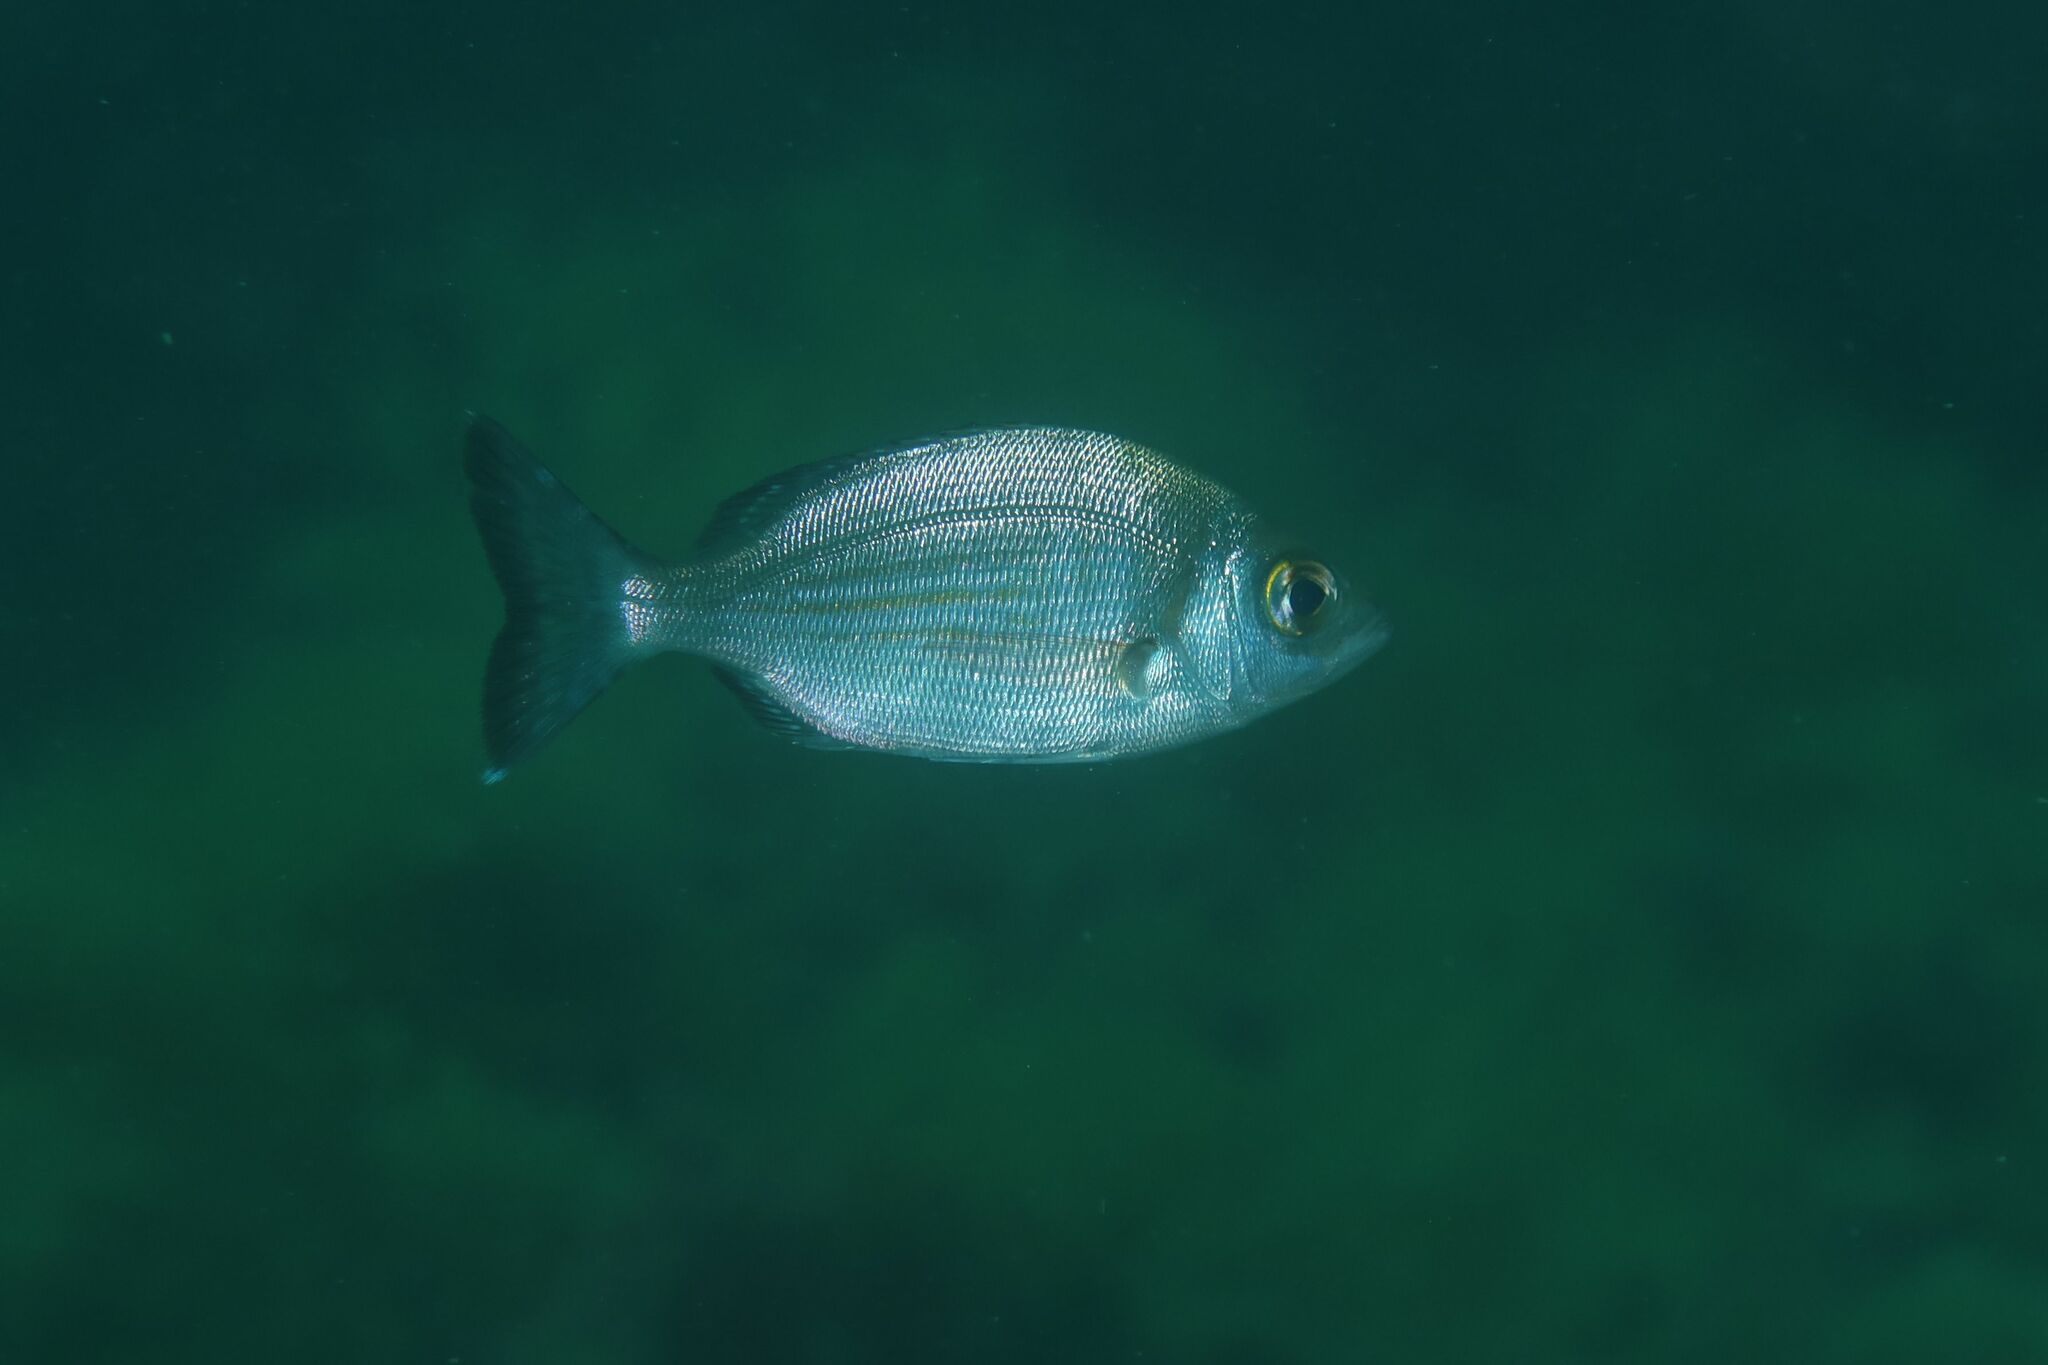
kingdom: Animalia
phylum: Chordata
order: Perciformes
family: Sparidae
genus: Spondyliosoma
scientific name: Spondyliosoma cantharus
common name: Black seabream
